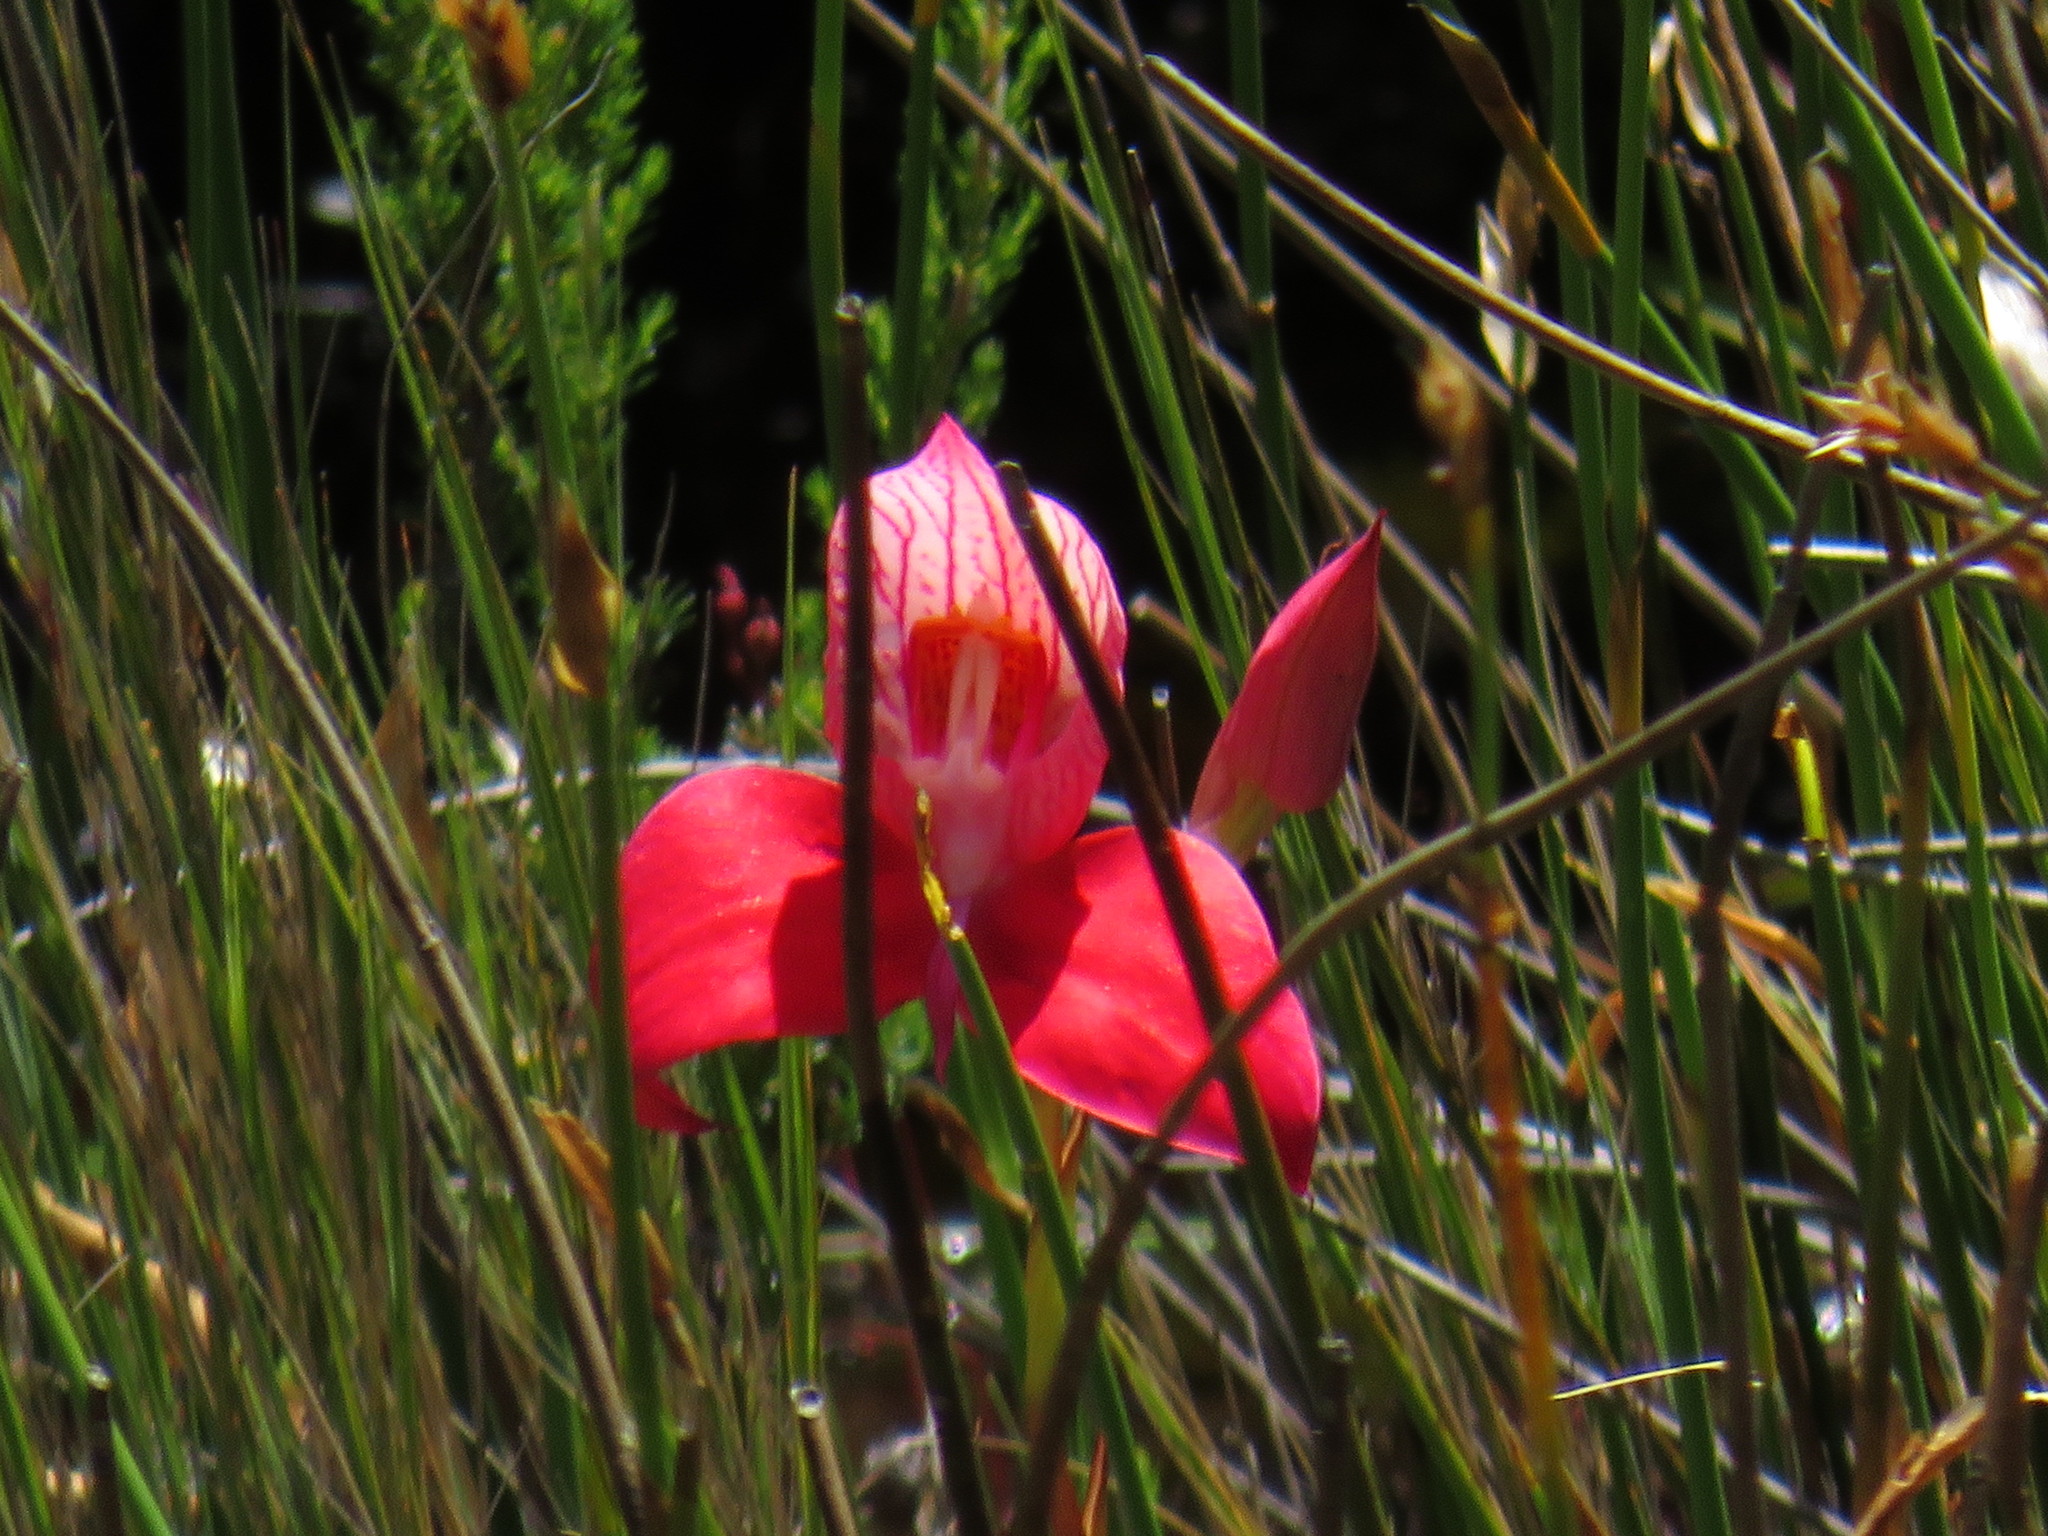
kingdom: Plantae
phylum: Tracheophyta
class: Liliopsida
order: Asparagales
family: Orchidaceae
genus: Disa
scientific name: Disa uniflora
